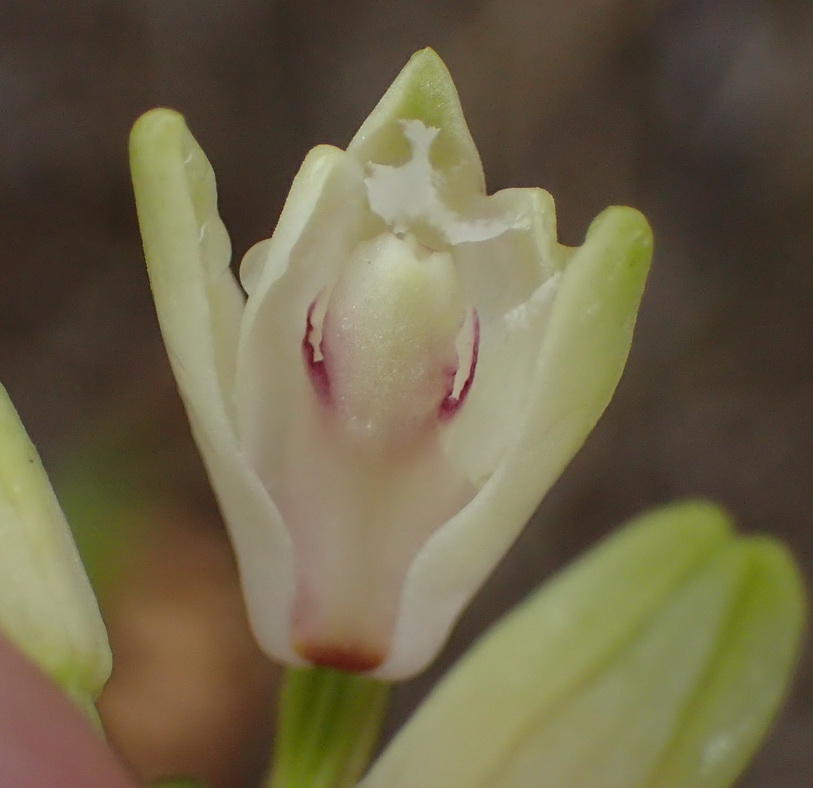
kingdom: Plantae
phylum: Tracheophyta
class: Liliopsida
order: Asparagales
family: Orchidaceae
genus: Eulophia
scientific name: Eulophia aculeata
